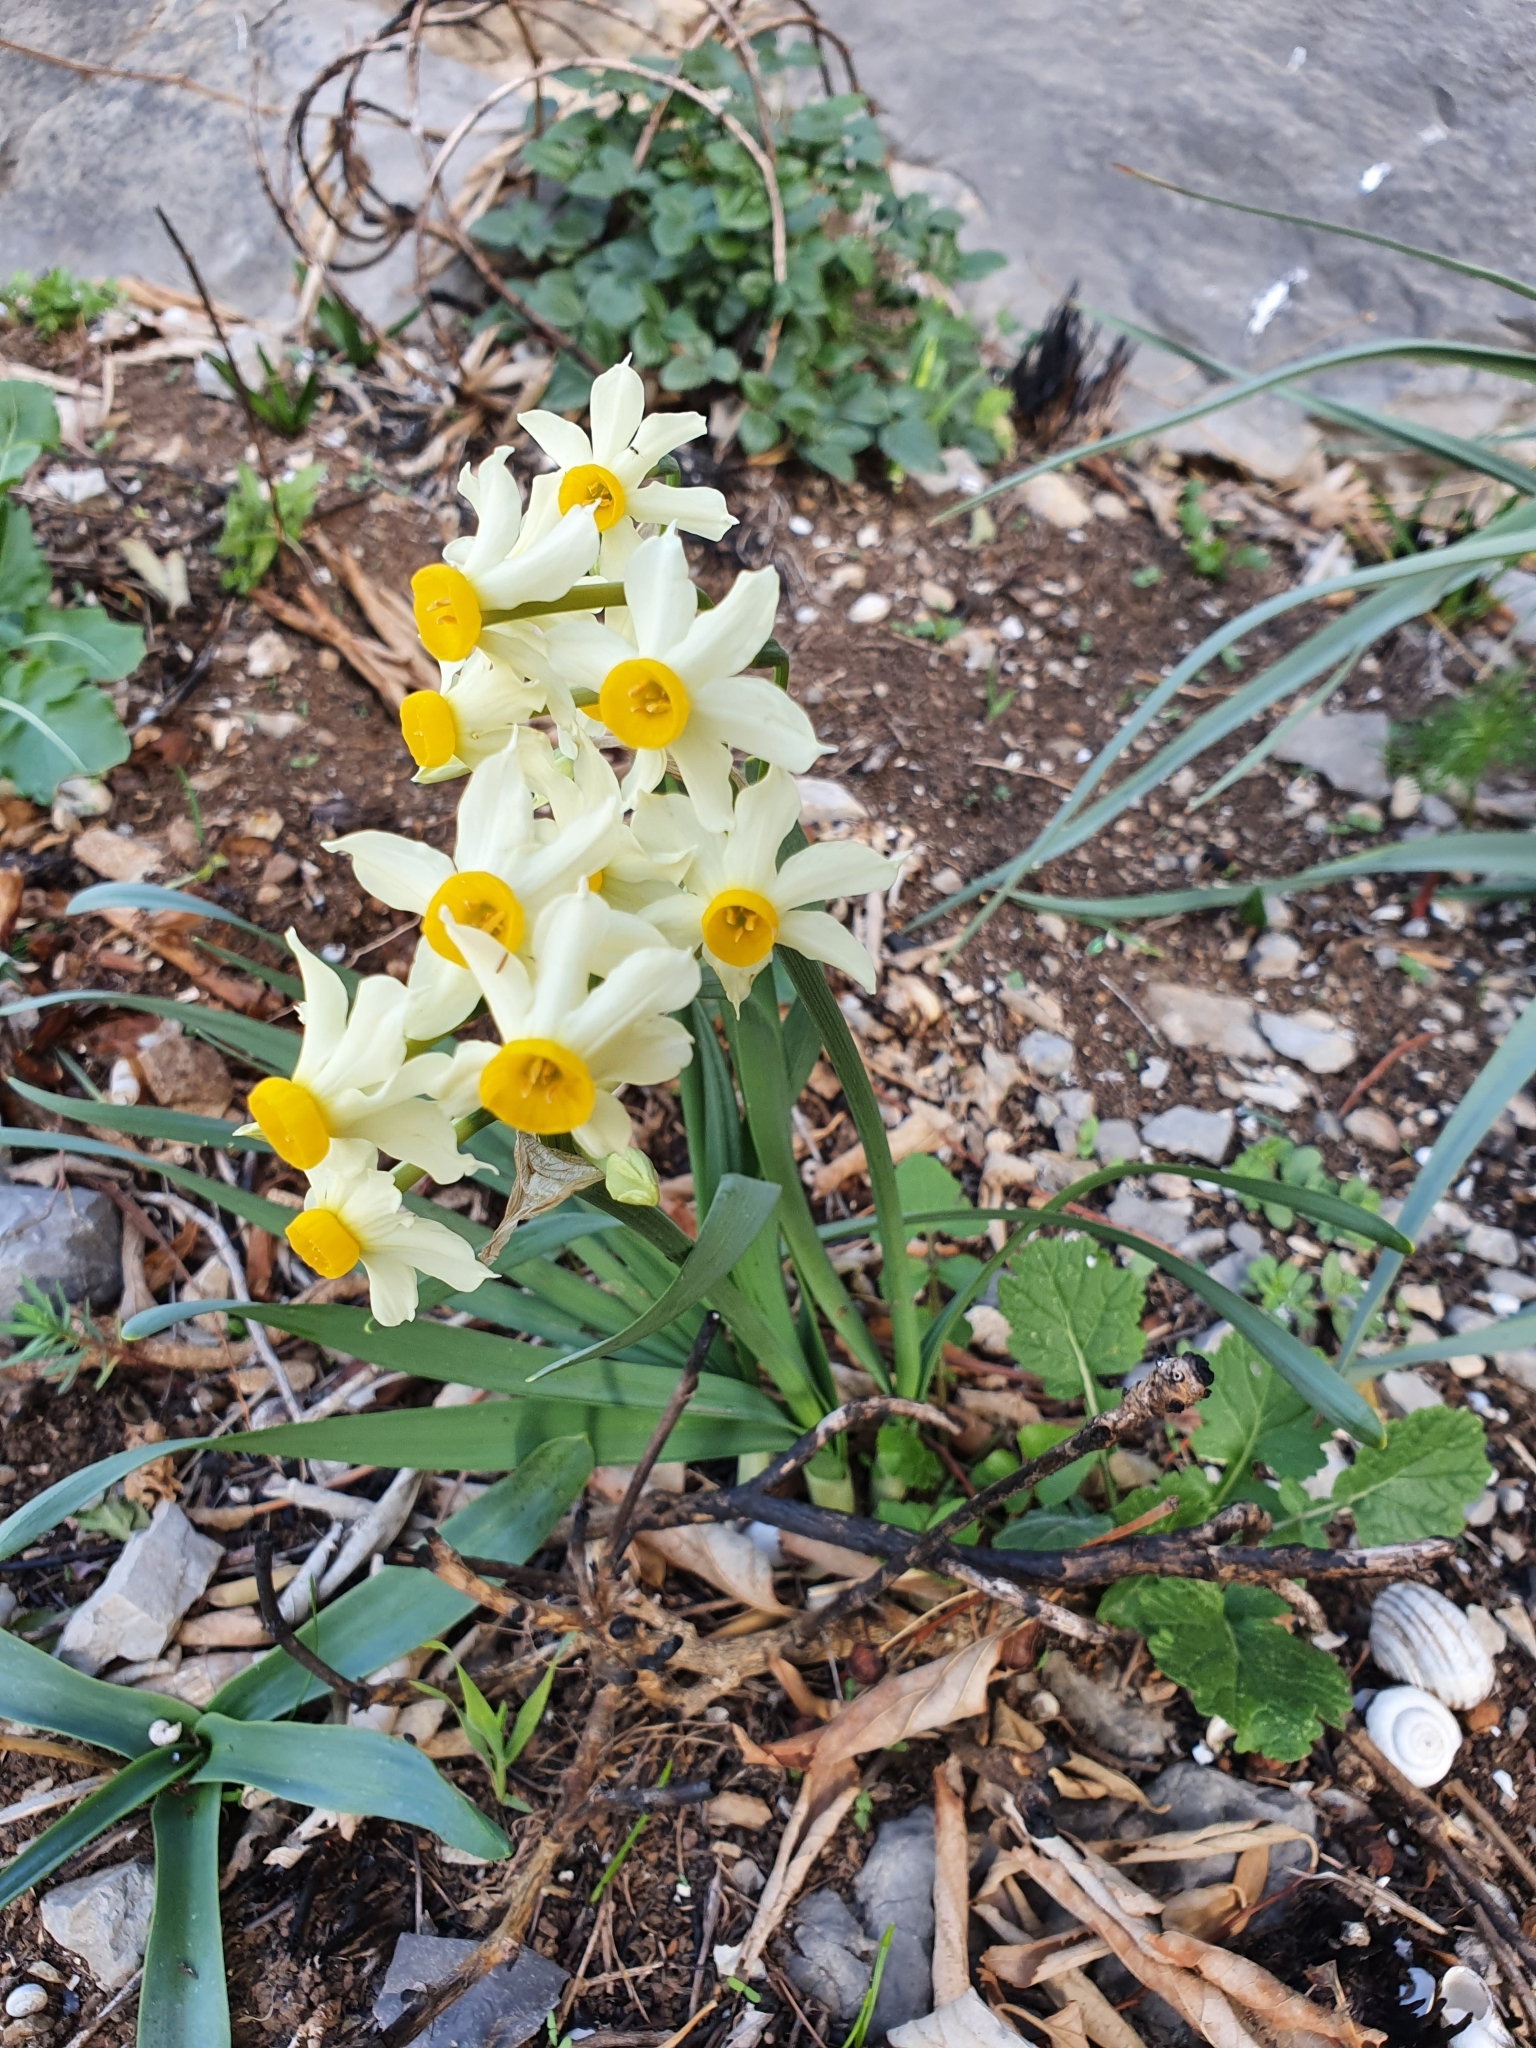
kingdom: Plantae
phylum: Tracheophyta
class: Liliopsida
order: Asparagales
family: Amaryllidaceae
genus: Narcissus
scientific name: Narcissus tazetta
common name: Bunch-flowered daffodil
